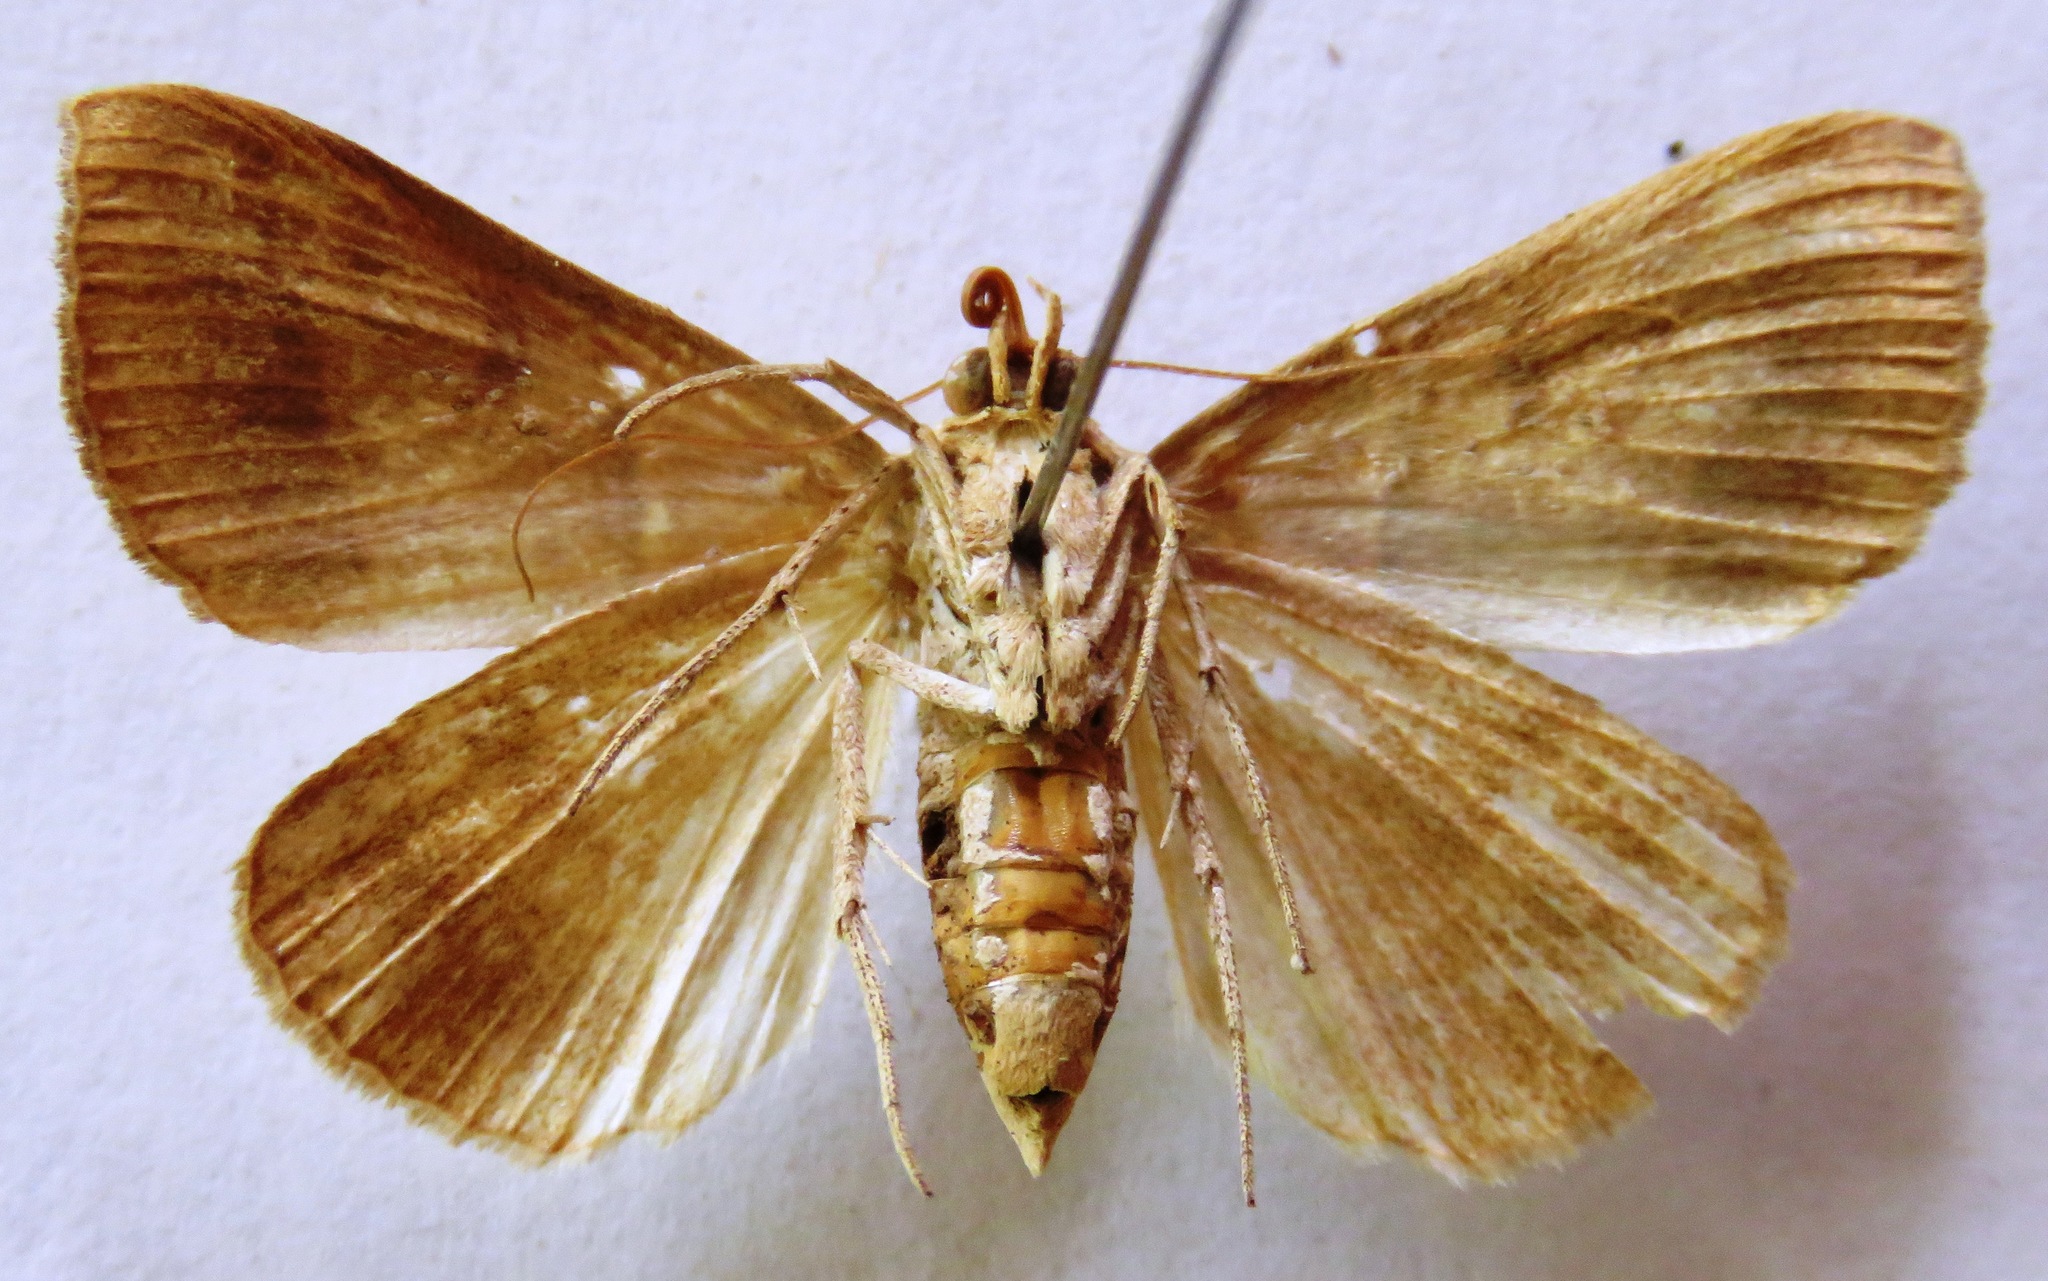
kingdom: Animalia
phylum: Arthropoda
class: Insecta
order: Lepidoptera
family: Erebidae
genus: Ptichodis
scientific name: Ptichodis immunis
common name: Cutworm moth
